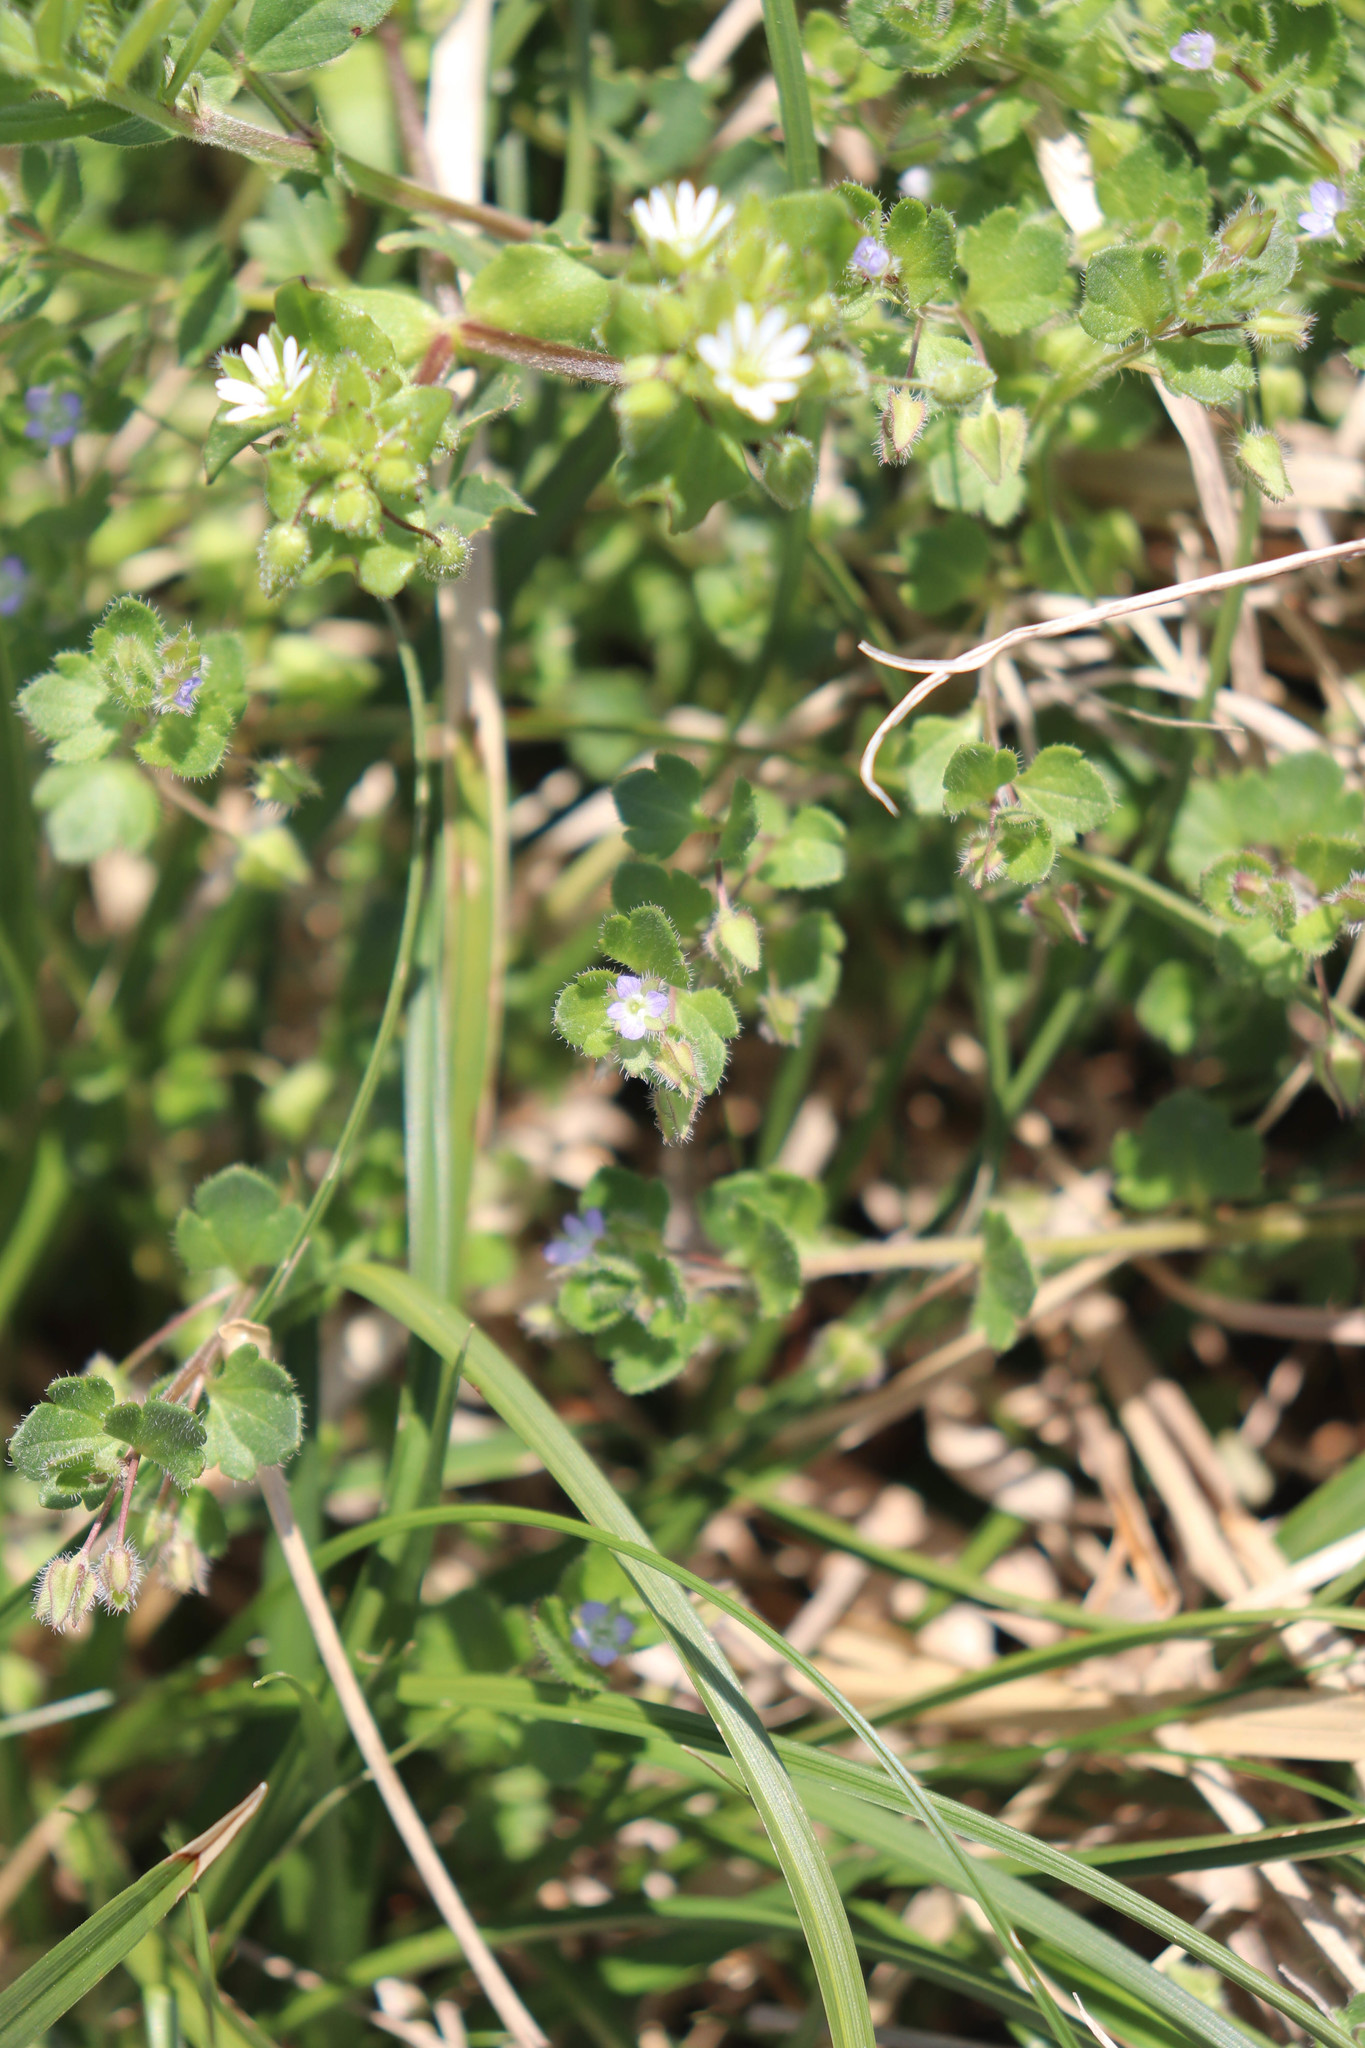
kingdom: Plantae
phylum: Tracheophyta
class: Magnoliopsida
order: Lamiales
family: Plantaginaceae
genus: Veronica
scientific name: Veronica hederifolia
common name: Ivy-leaved speedwell
